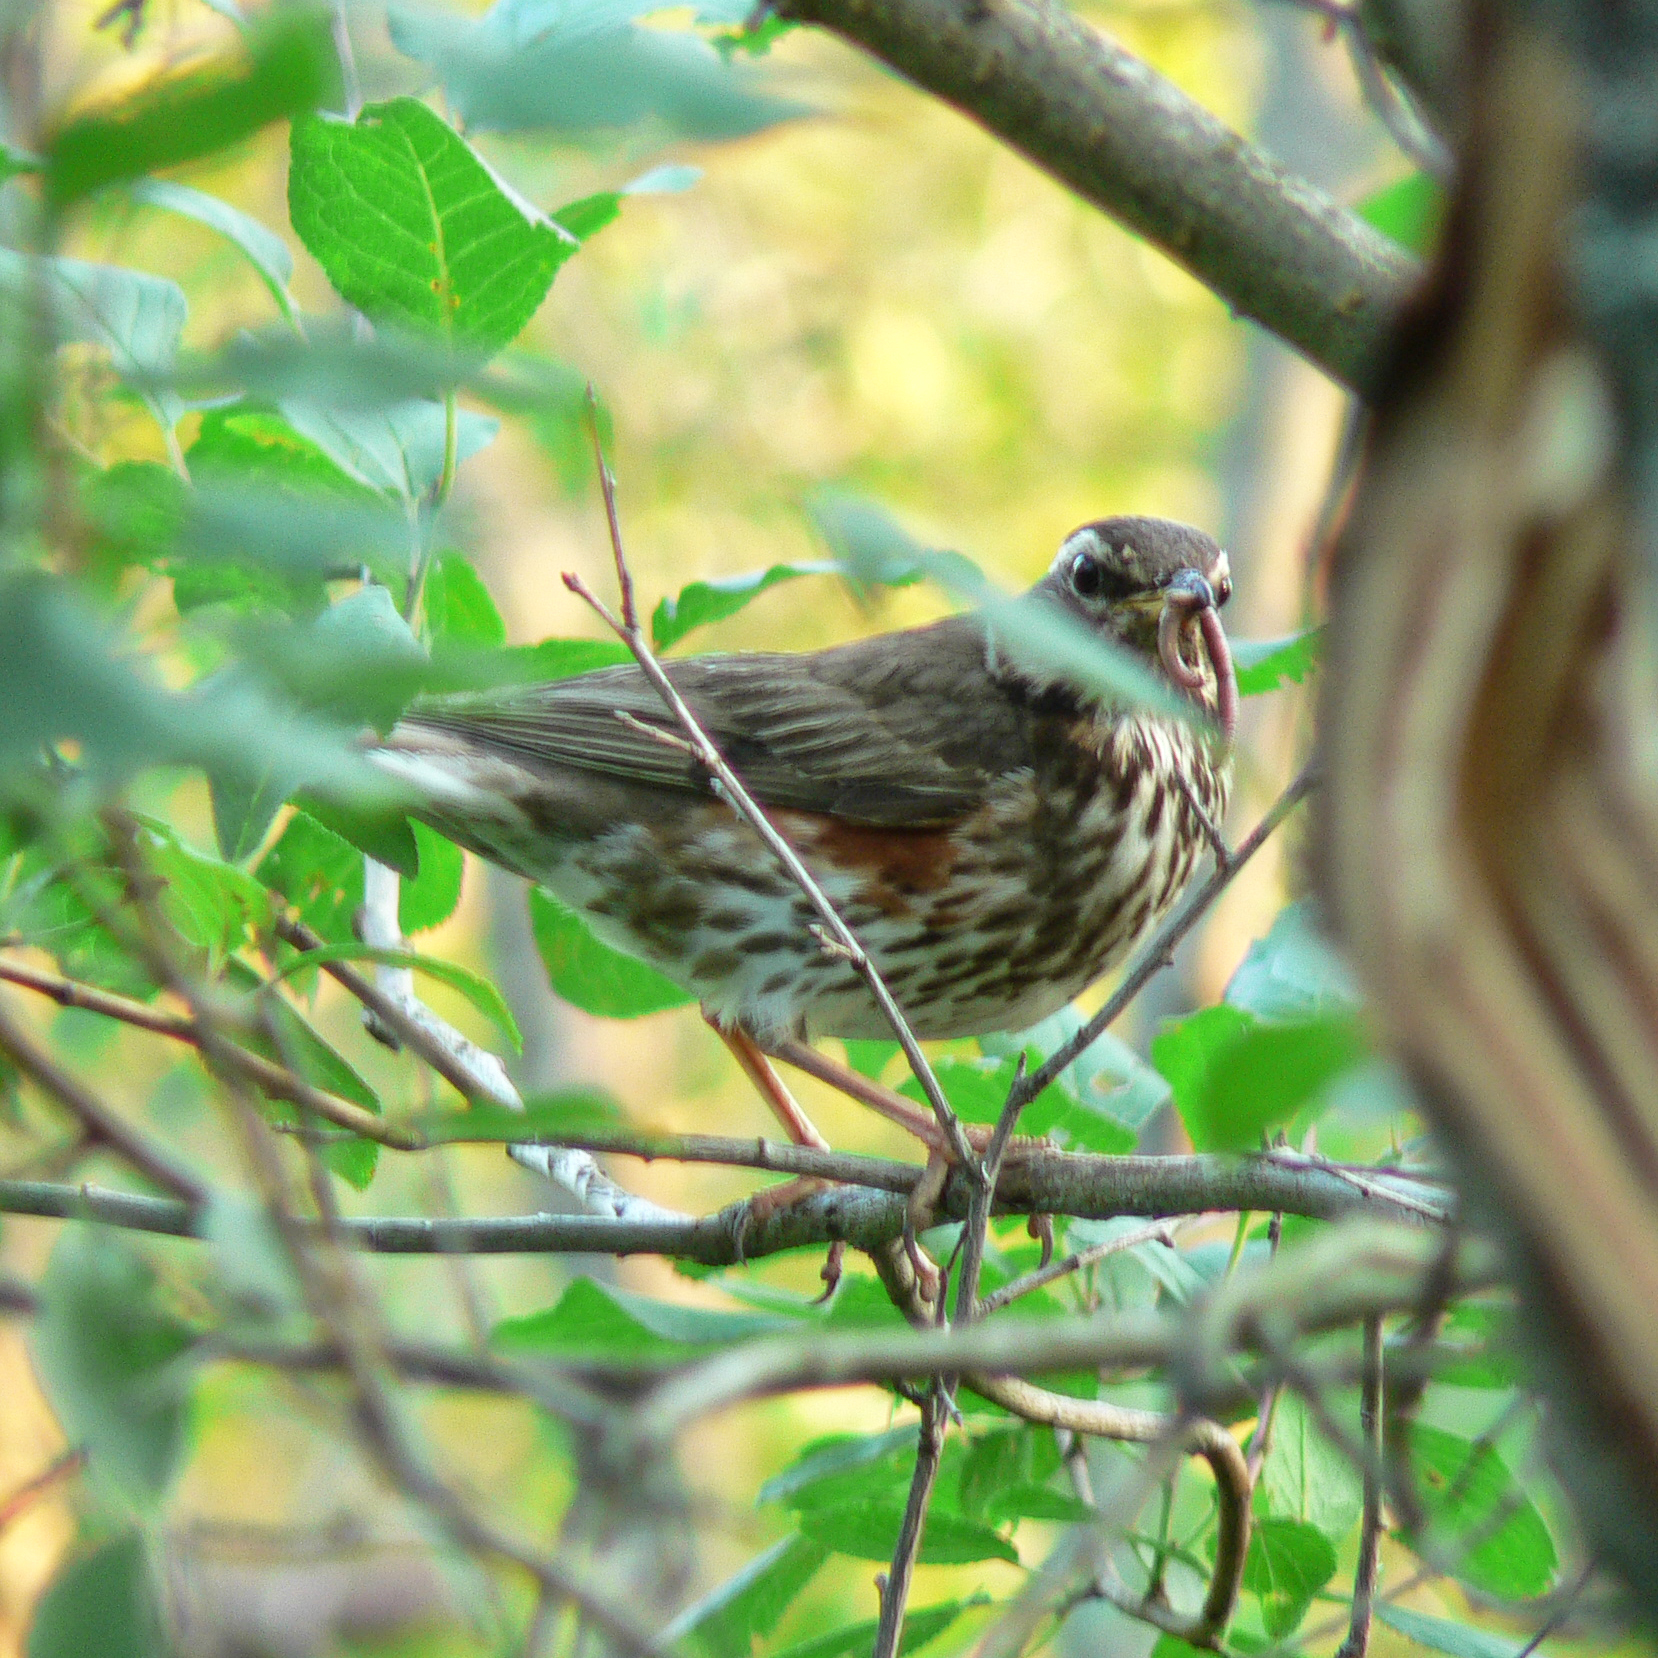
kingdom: Animalia
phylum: Chordata
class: Aves
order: Passeriformes
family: Turdidae
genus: Turdus
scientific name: Turdus iliacus
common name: Redwing
